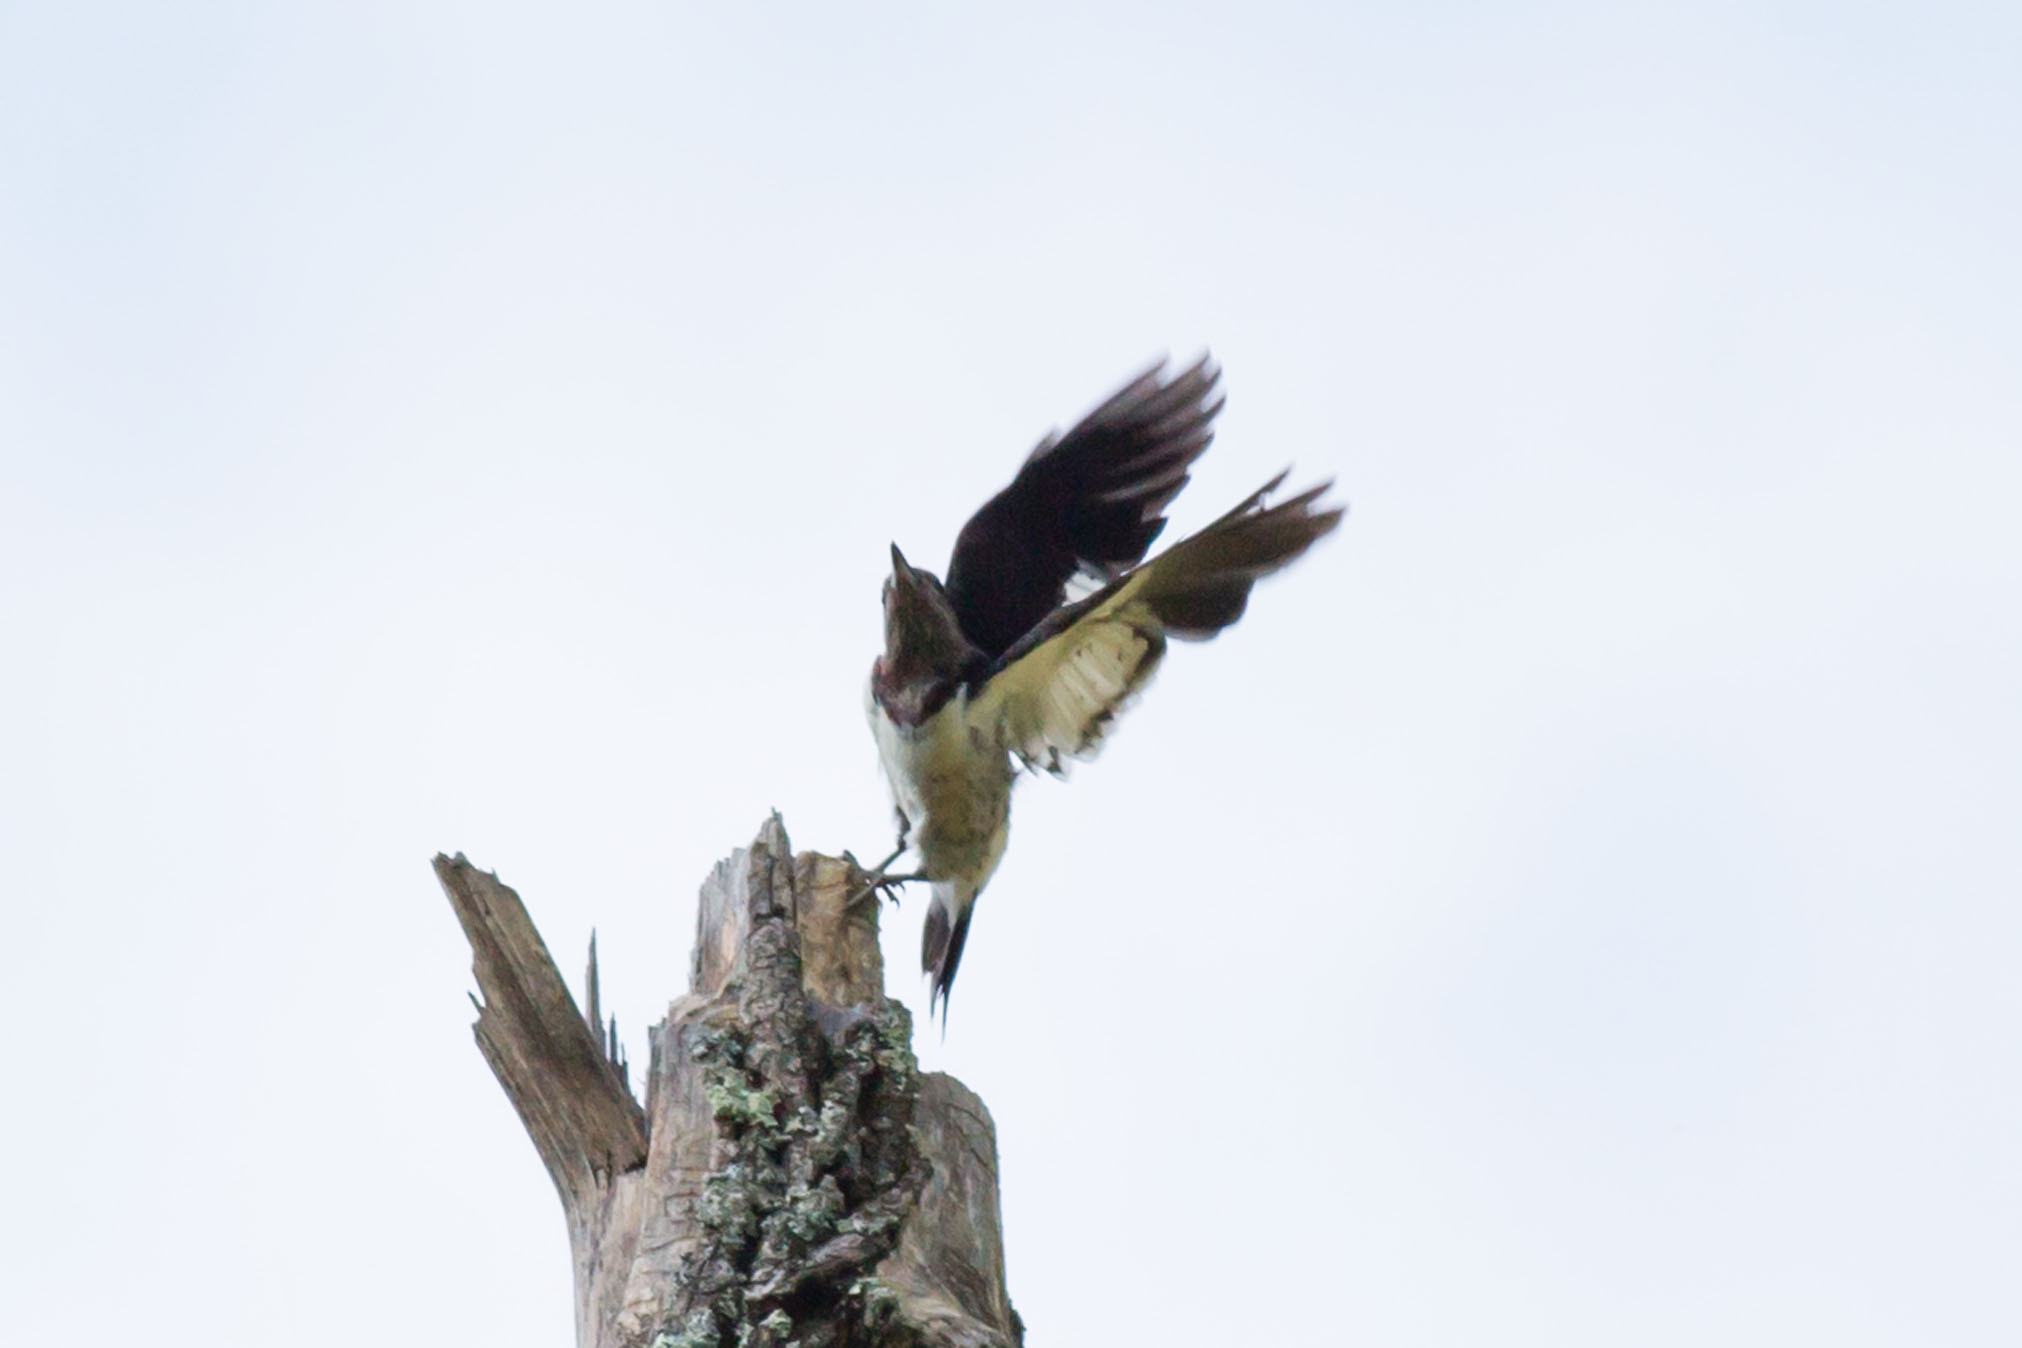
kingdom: Animalia
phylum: Chordata
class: Aves
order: Piciformes
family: Picidae
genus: Melanerpes
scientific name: Melanerpes erythrocephalus
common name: Red-headed woodpecker
